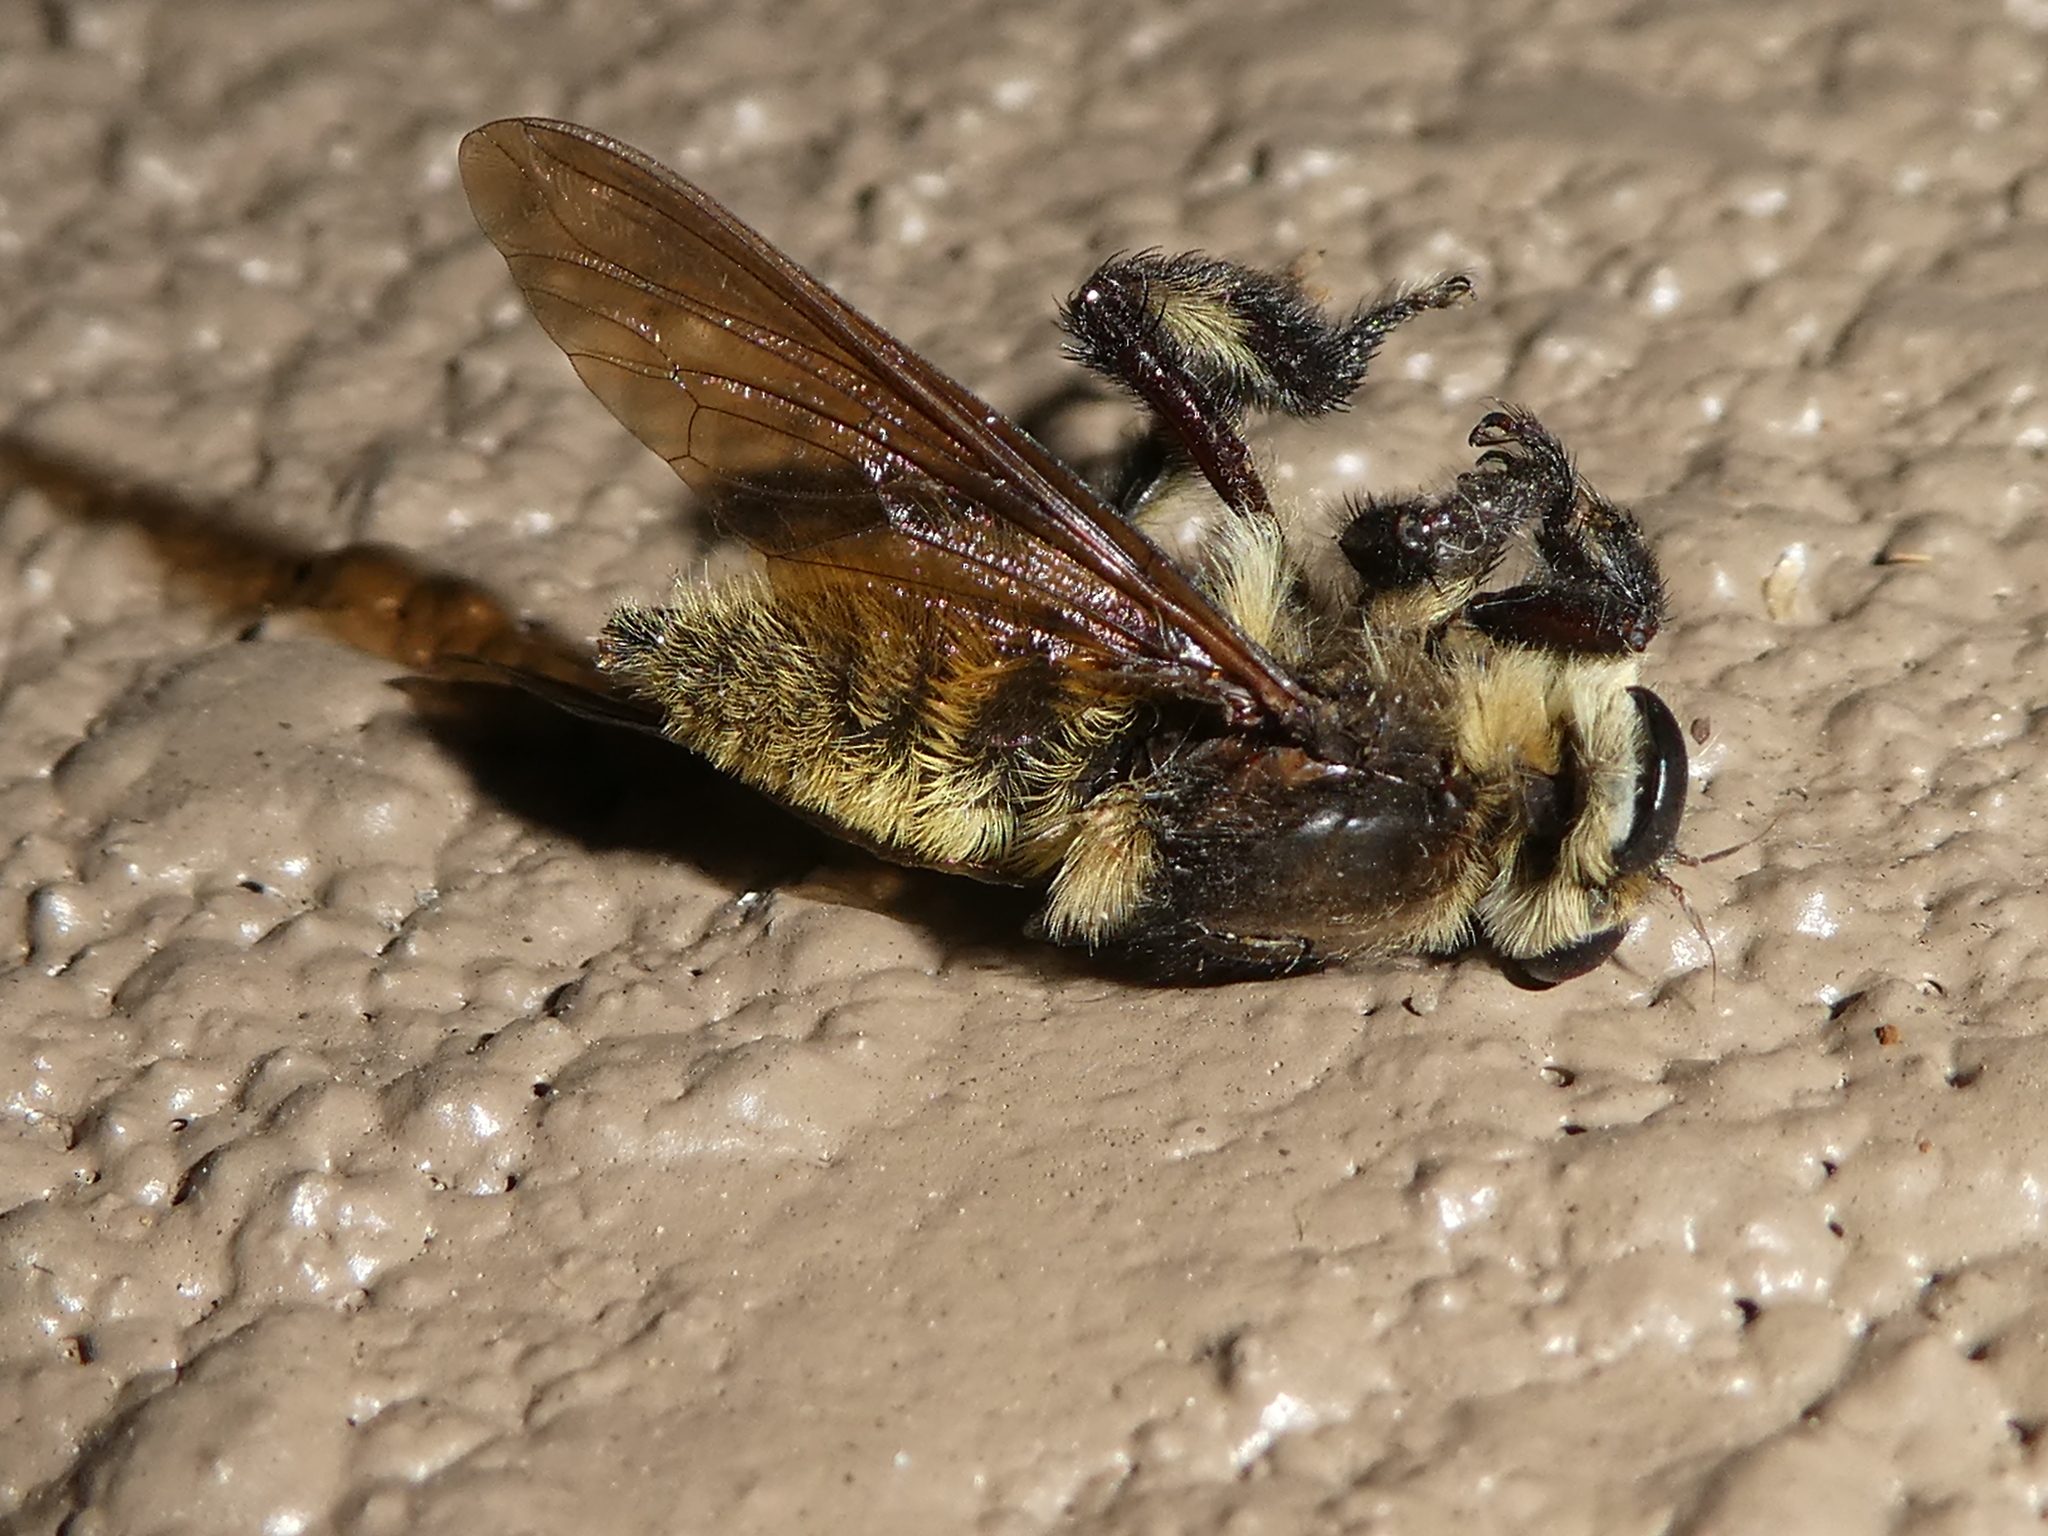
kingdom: Animalia
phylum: Arthropoda
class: Insecta
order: Diptera
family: Asilidae
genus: Mallophora
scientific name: Mallophora fautrix
